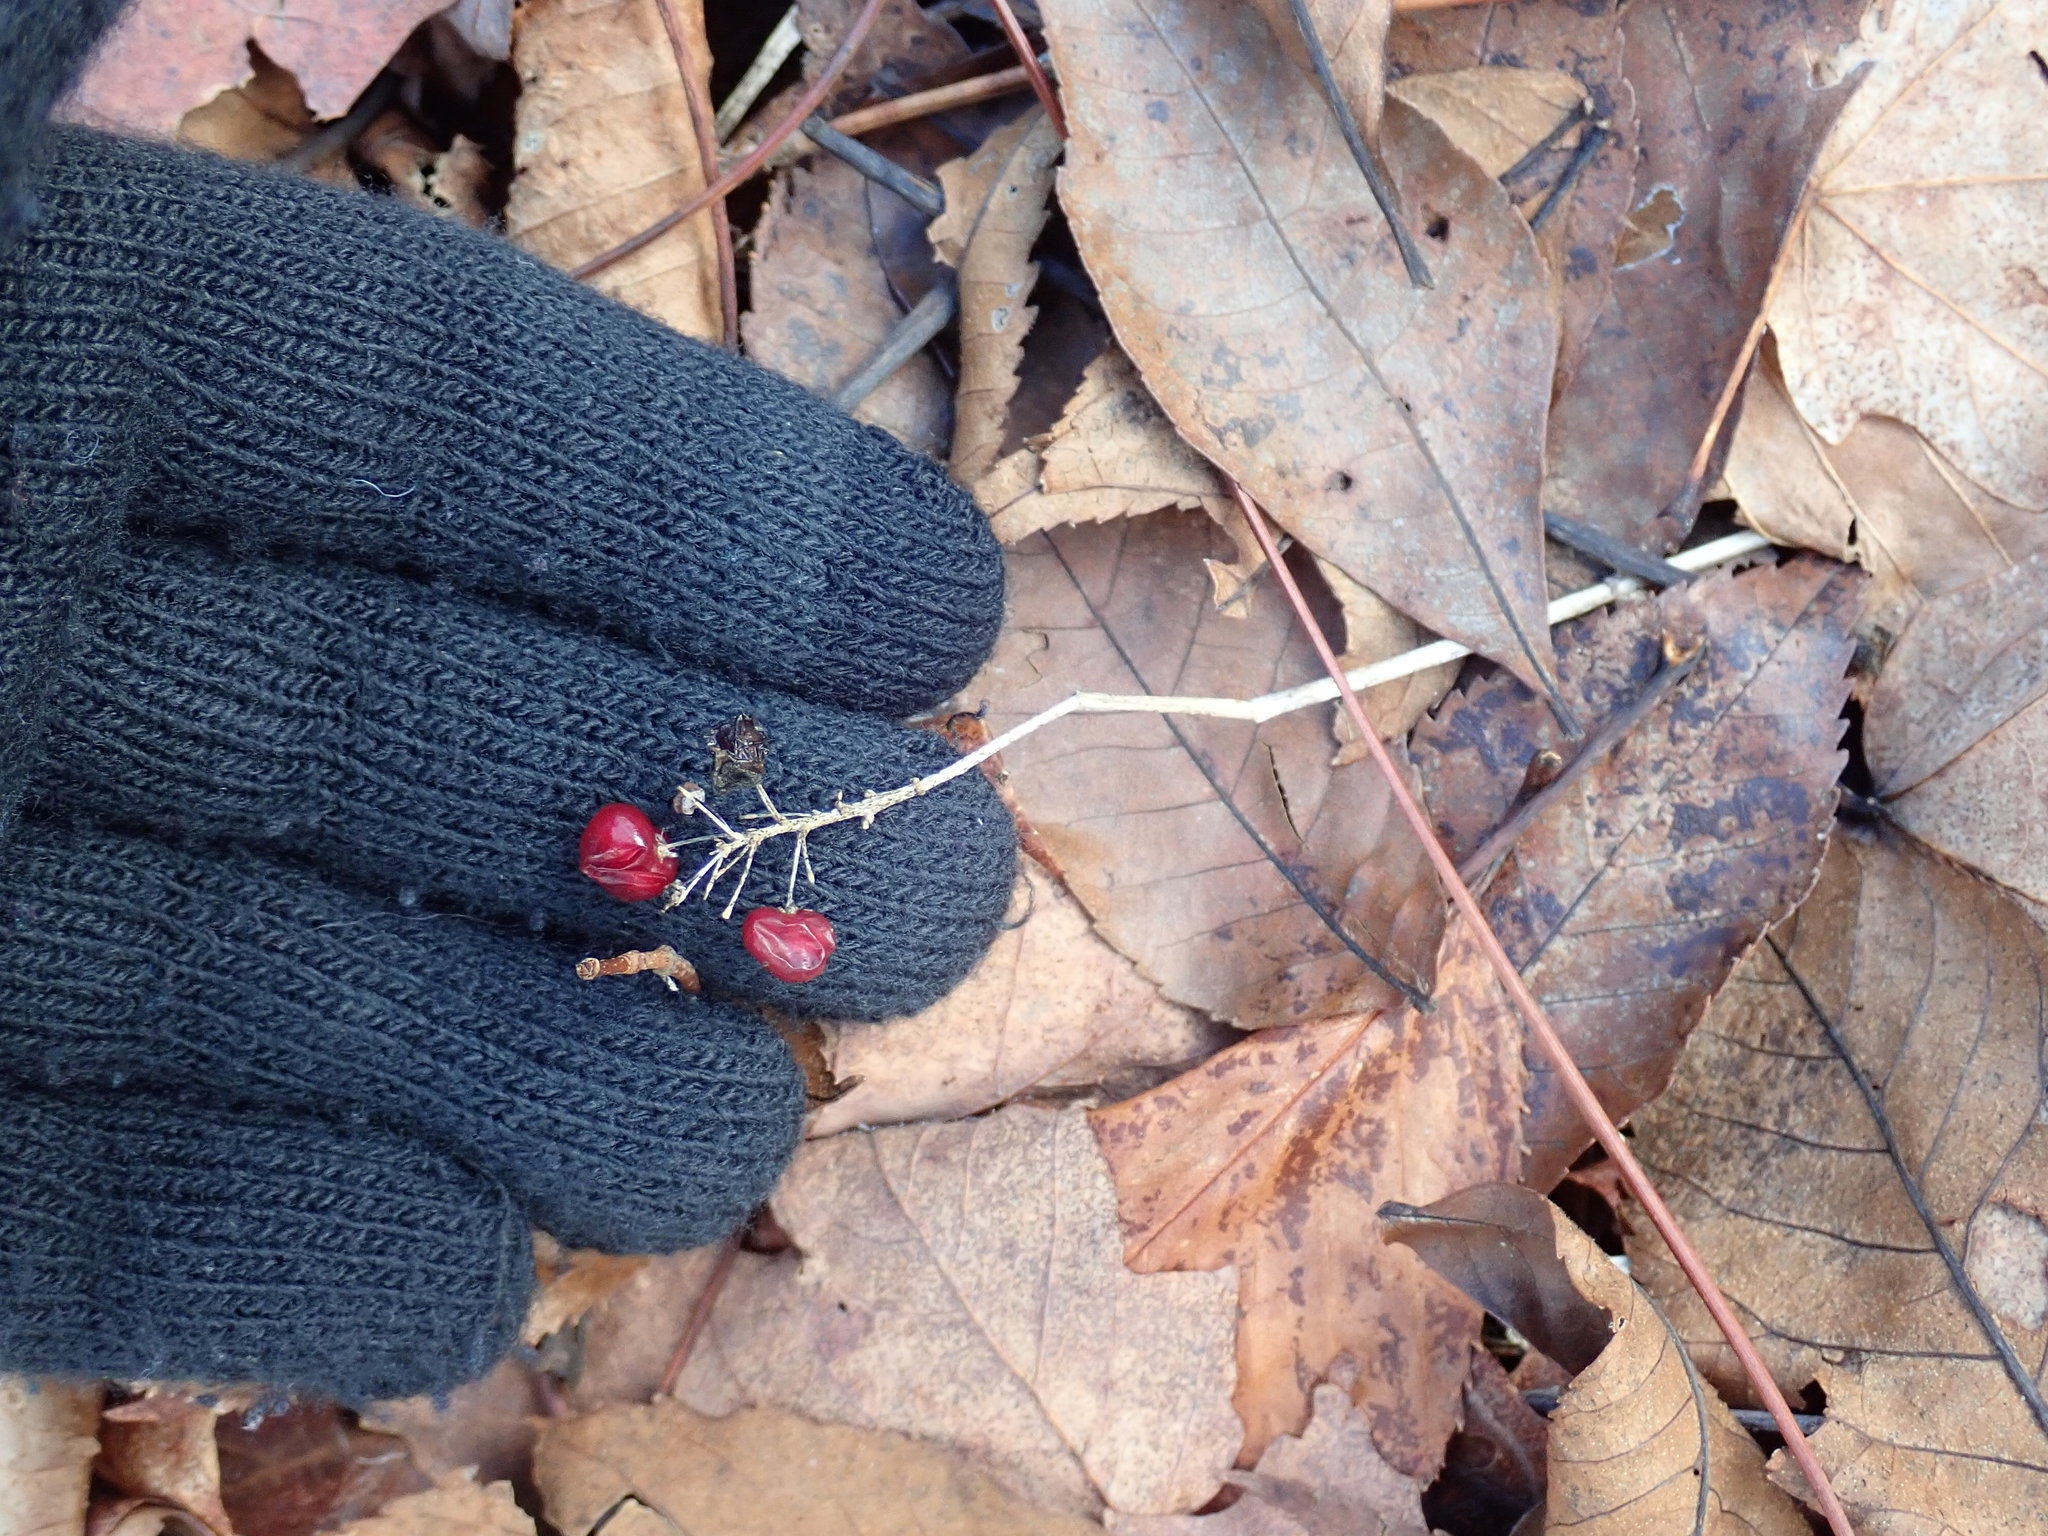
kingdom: Plantae
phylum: Tracheophyta
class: Liliopsida
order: Asparagales
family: Asparagaceae
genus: Maianthemum
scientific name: Maianthemum canadense
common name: False lily-of-the-valley
